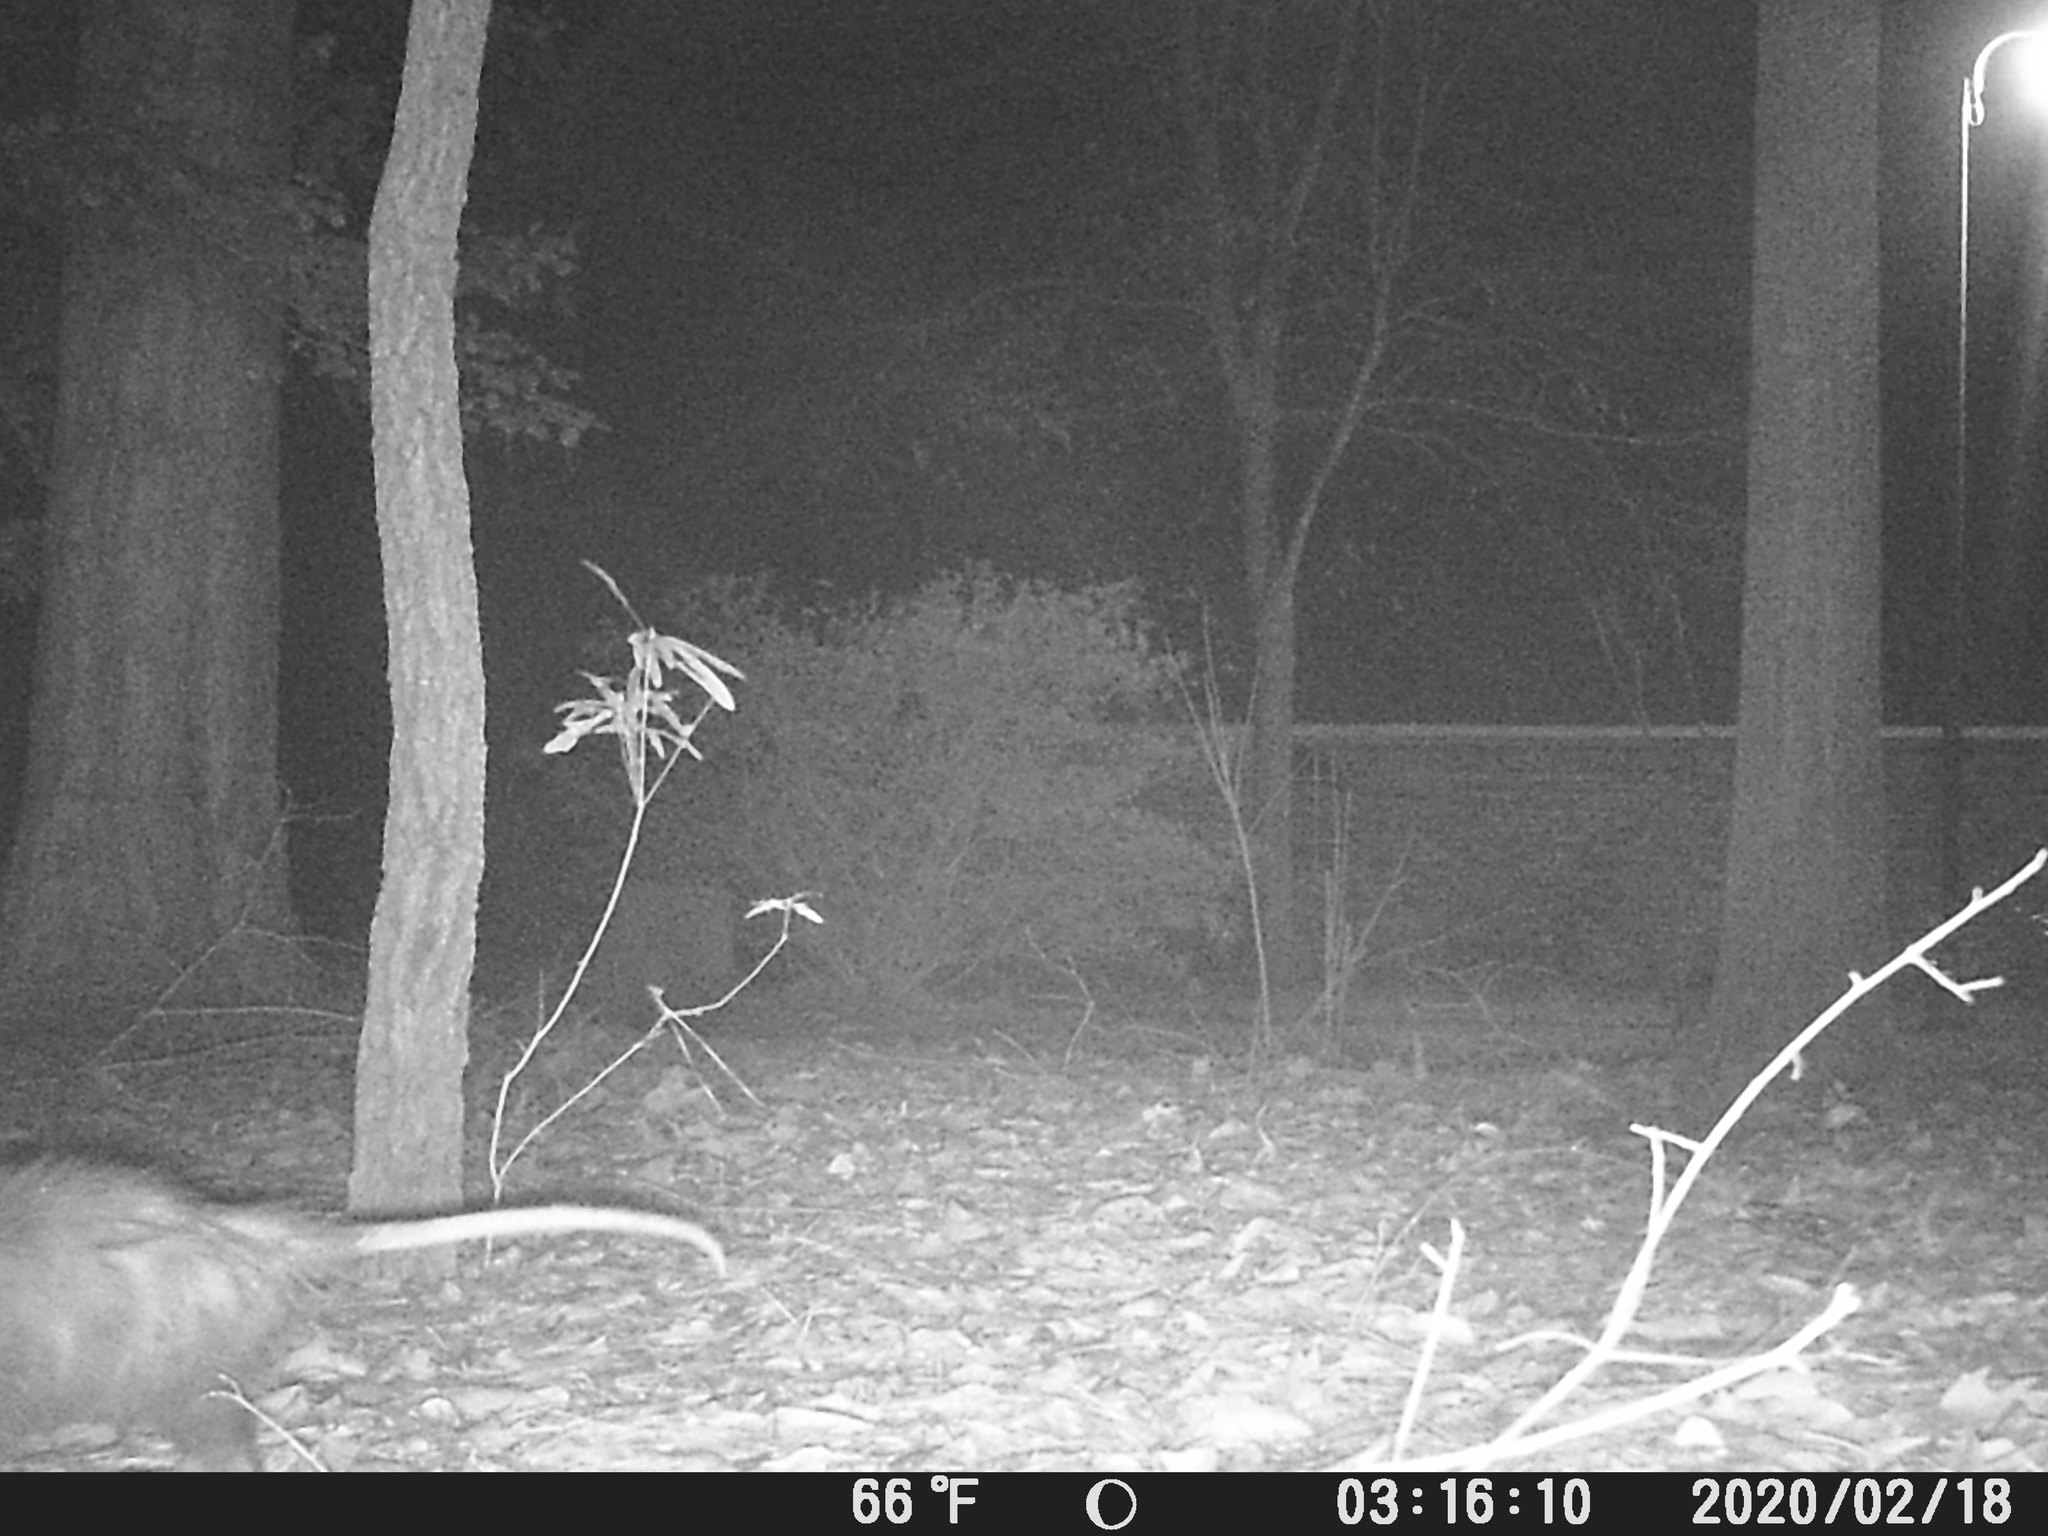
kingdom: Animalia
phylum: Chordata
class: Mammalia
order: Didelphimorphia
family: Didelphidae
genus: Didelphis
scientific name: Didelphis virginiana
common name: Virginia opossum
